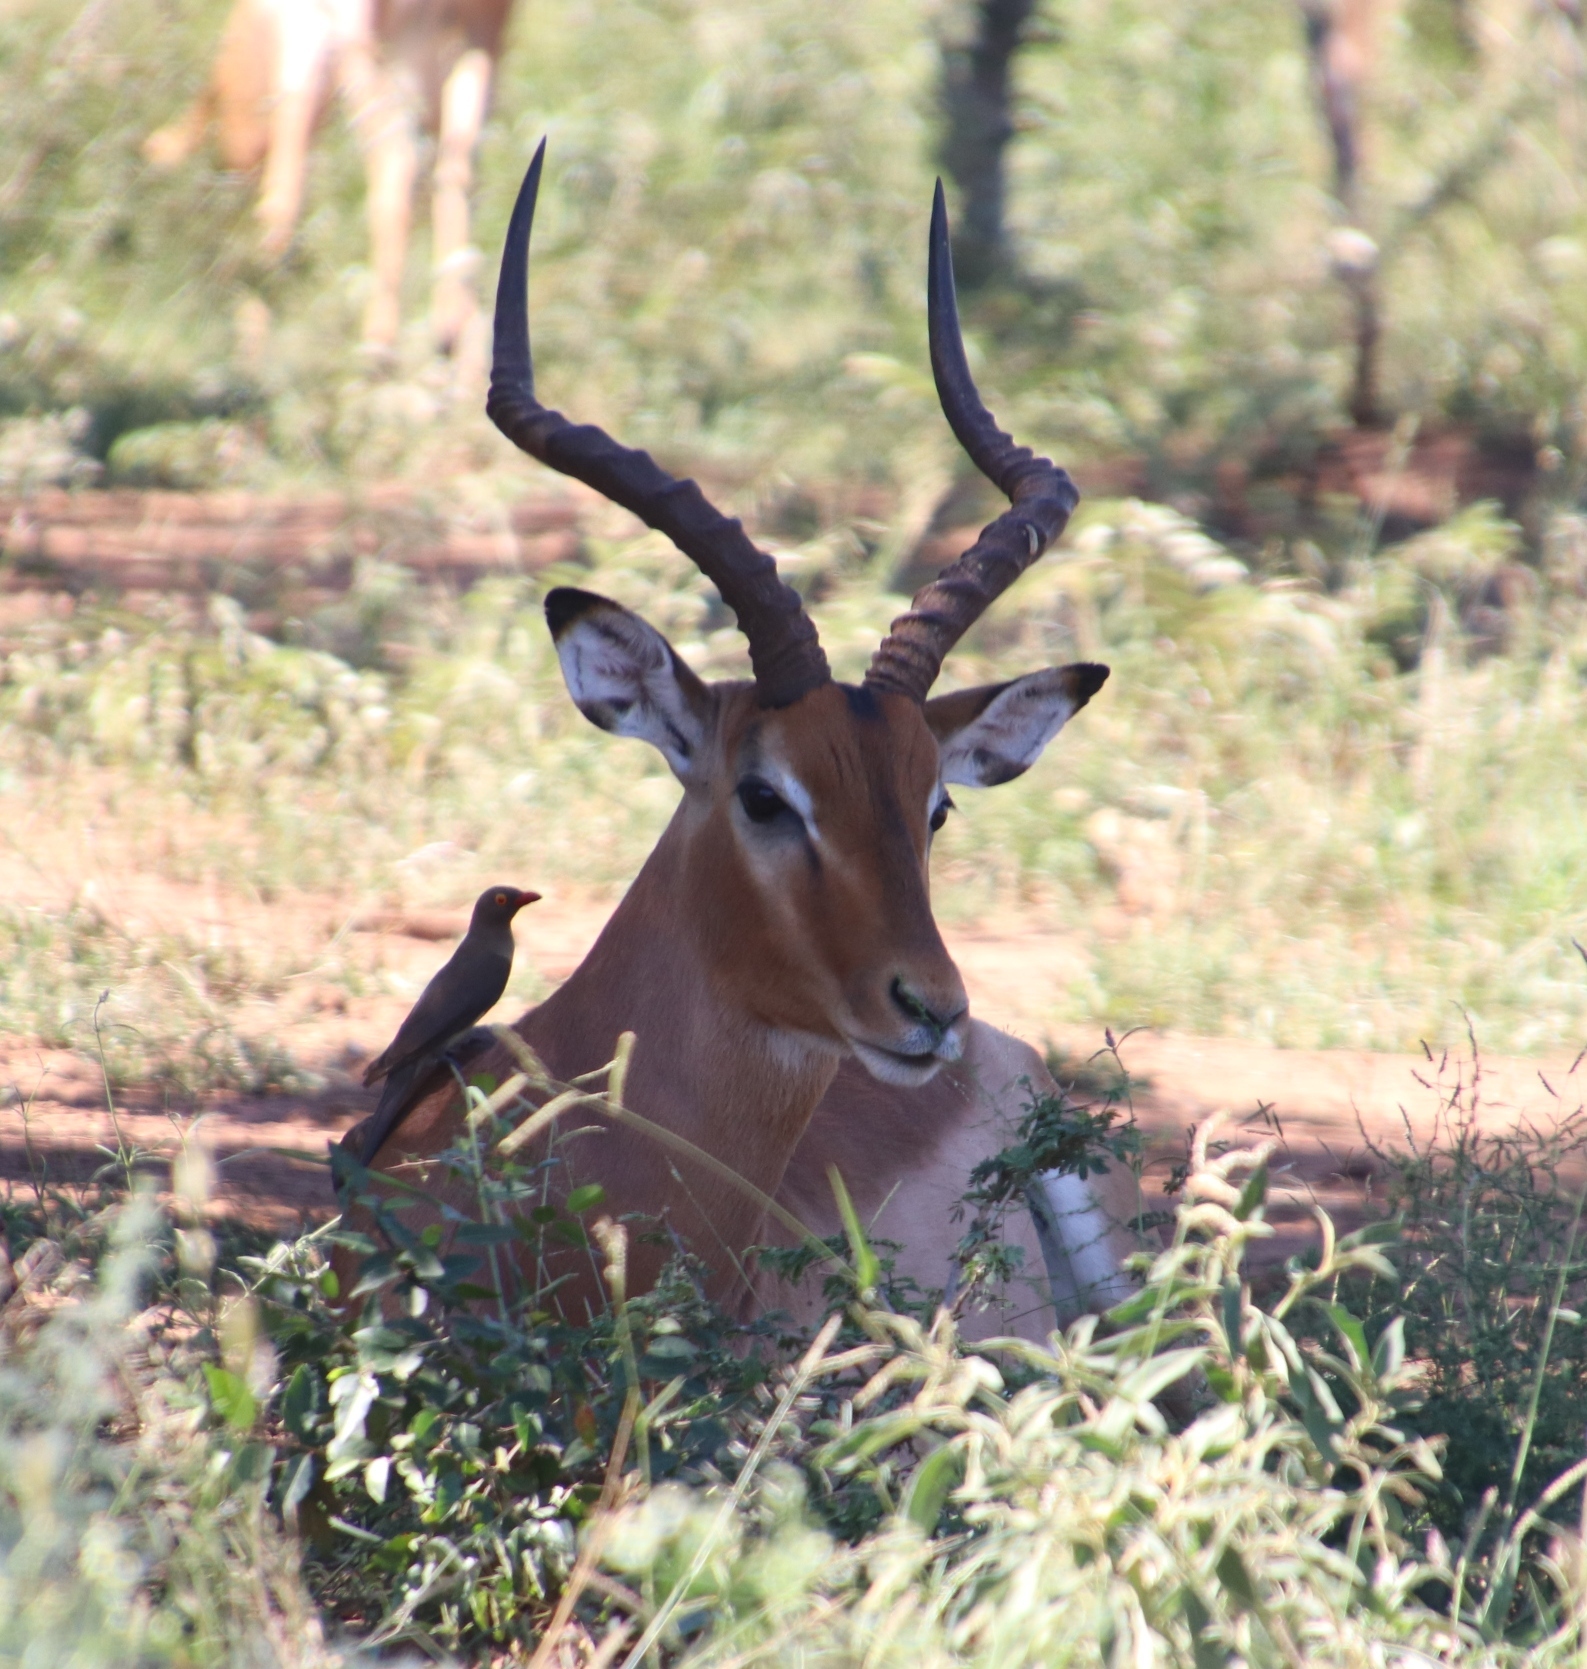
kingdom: Animalia
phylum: Chordata
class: Mammalia
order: Artiodactyla
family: Bovidae
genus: Aepyceros
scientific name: Aepyceros melampus
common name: Impala
